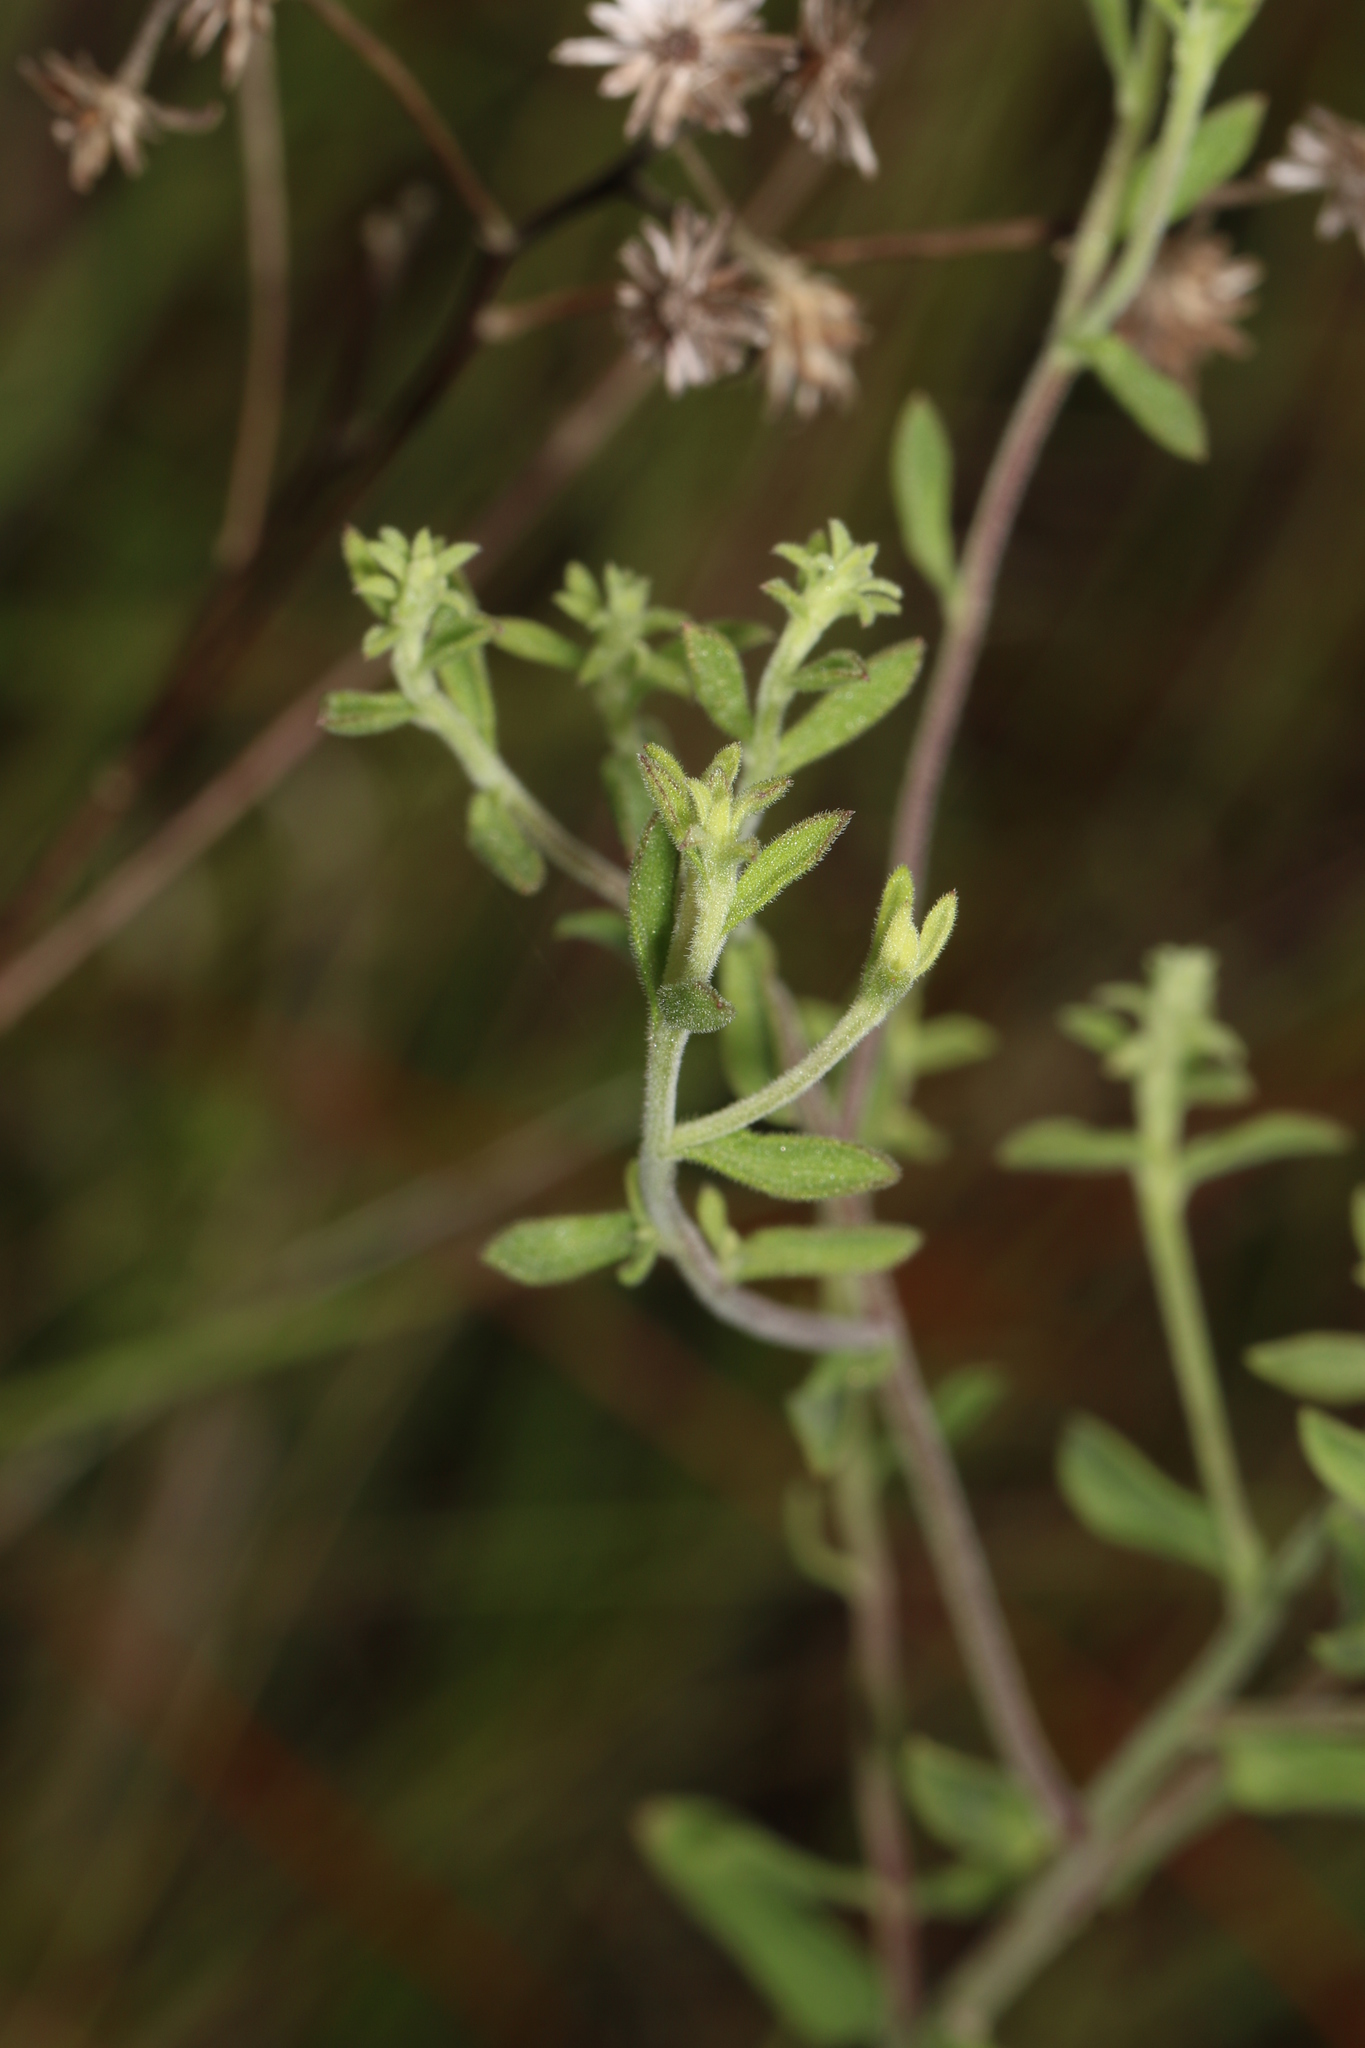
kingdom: Plantae
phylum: Tracheophyta
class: Magnoliopsida
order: Asterales
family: Asteraceae
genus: Sericocarpus
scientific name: Sericocarpus tortifolius
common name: Dixie aster
